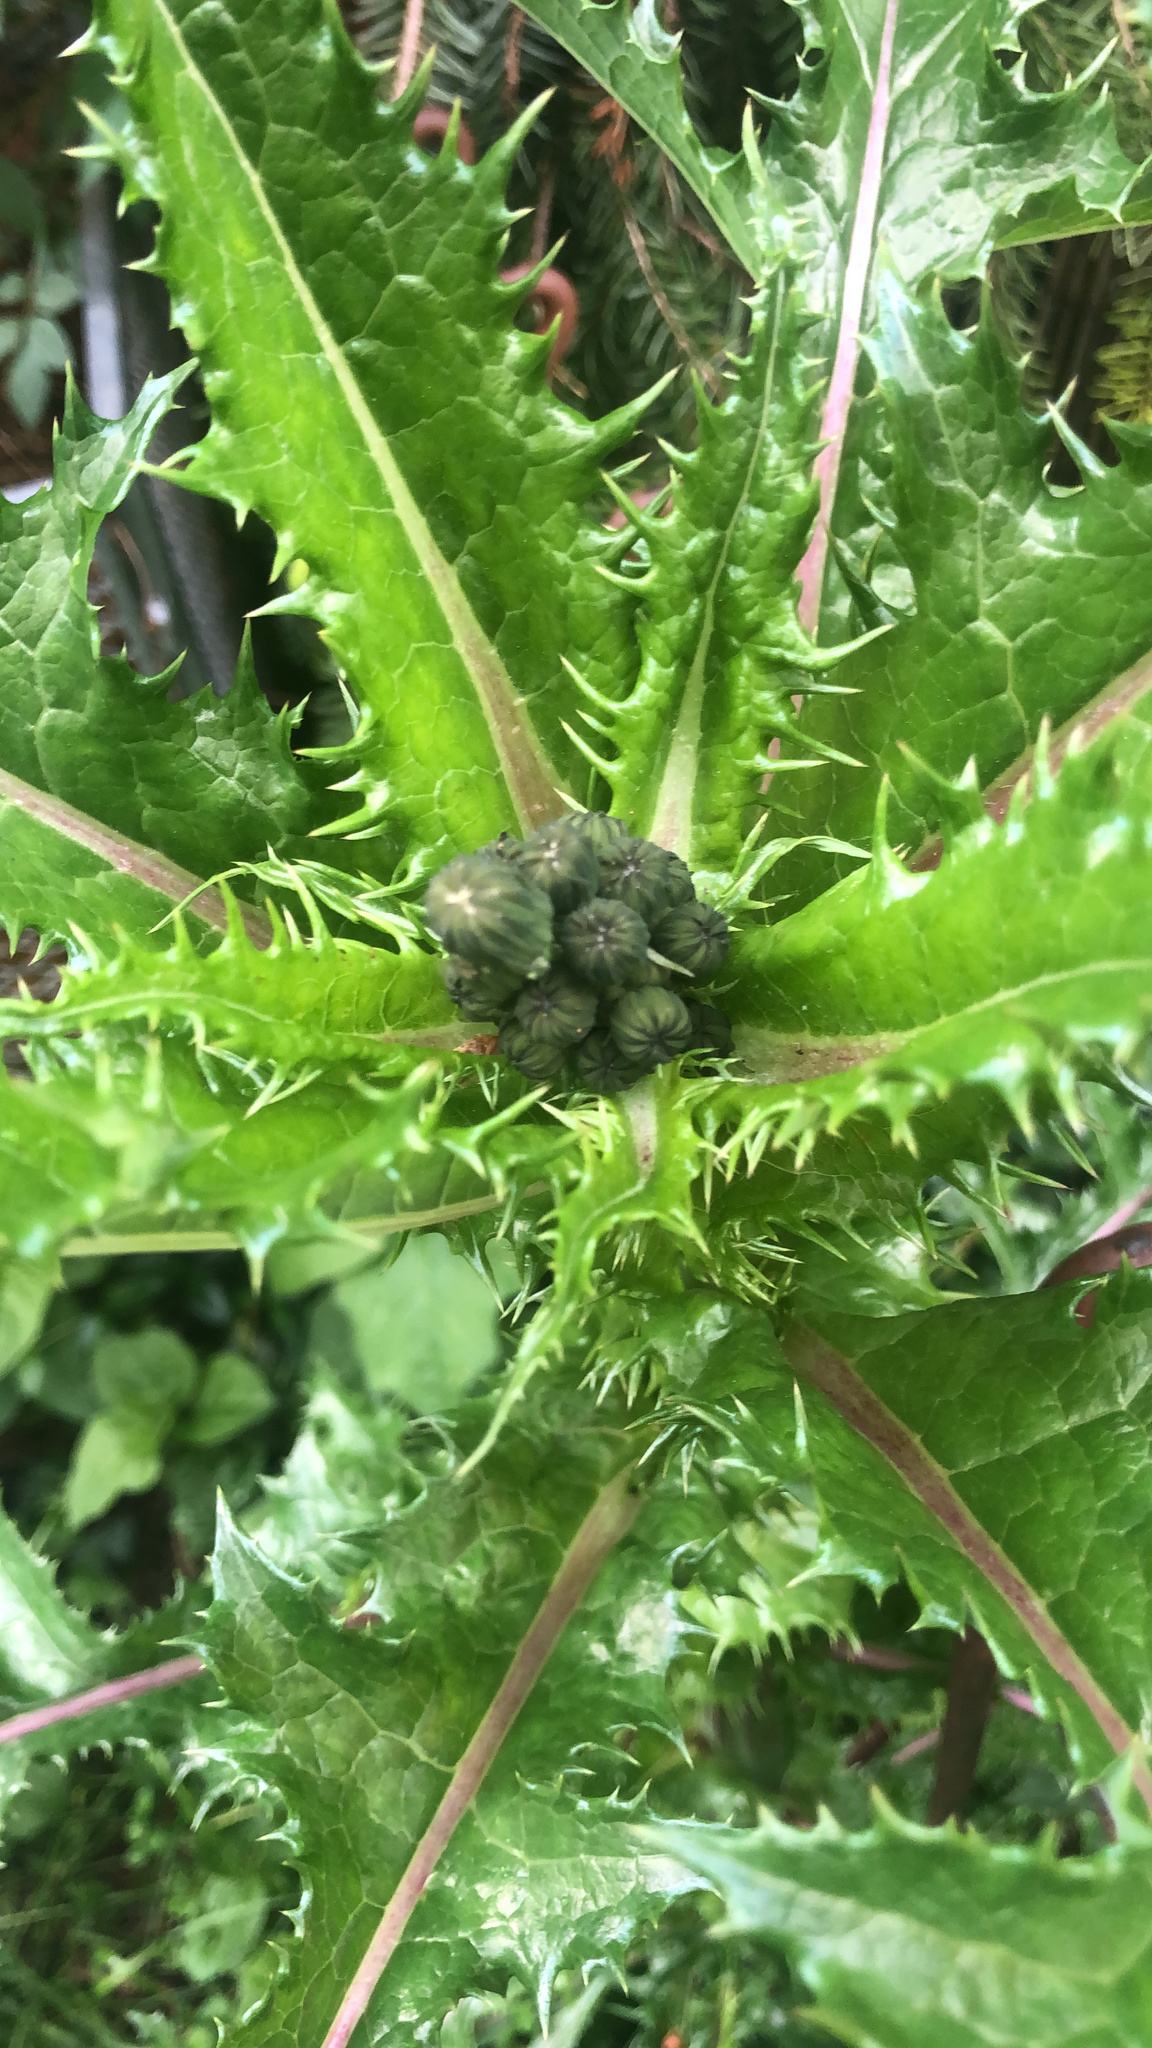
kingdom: Plantae
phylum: Tracheophyta
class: Magnoliopsida
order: Asterales
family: Asteraceae
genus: Sonchus
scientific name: Sonchus asper
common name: Prickly sow-thistle
